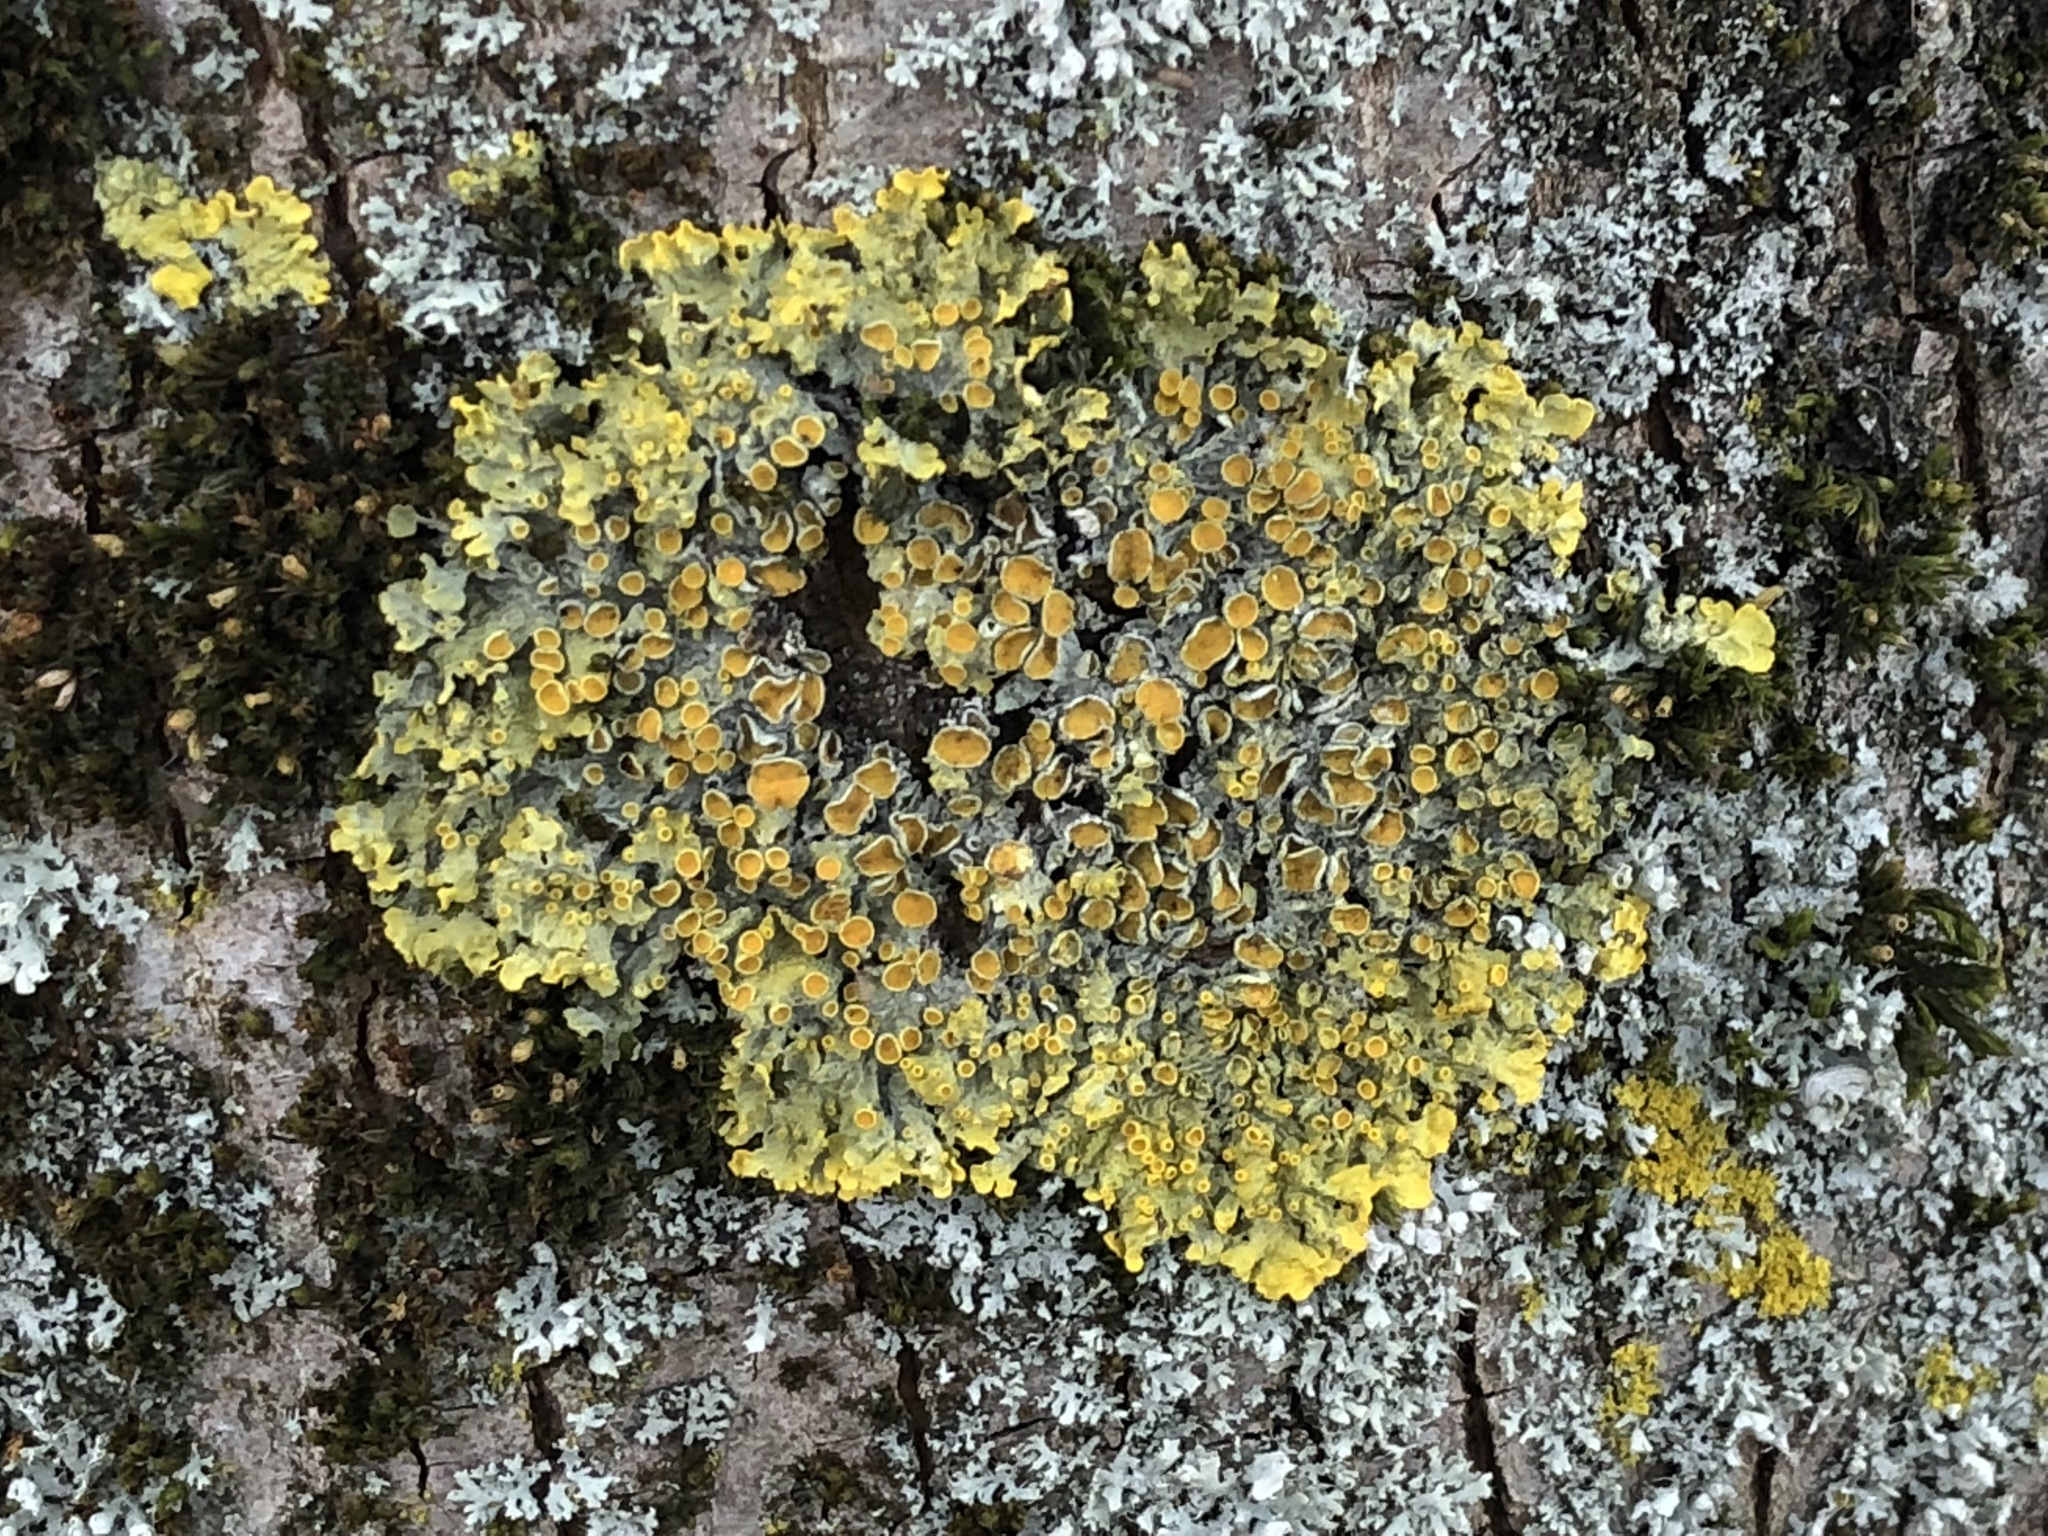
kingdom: Fungi
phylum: Ascomycota
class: Lecanoromycetes
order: Teloschistales
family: Teloschistaceae
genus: Xanthoria
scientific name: Xanthoria parietina
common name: Common orange lichen
